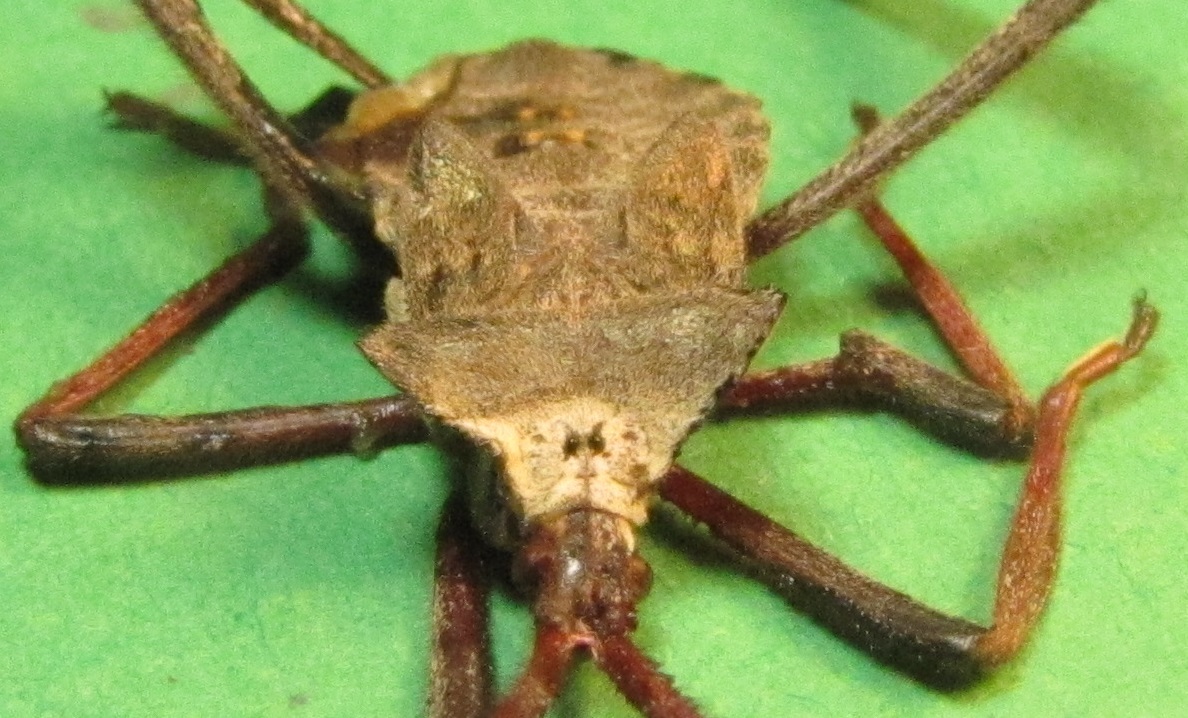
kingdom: Animalia
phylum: Arthropoda
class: Insecta
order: Hemiptera
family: Coreidae
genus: Acanthocephala
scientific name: Acanthocephala declivis
